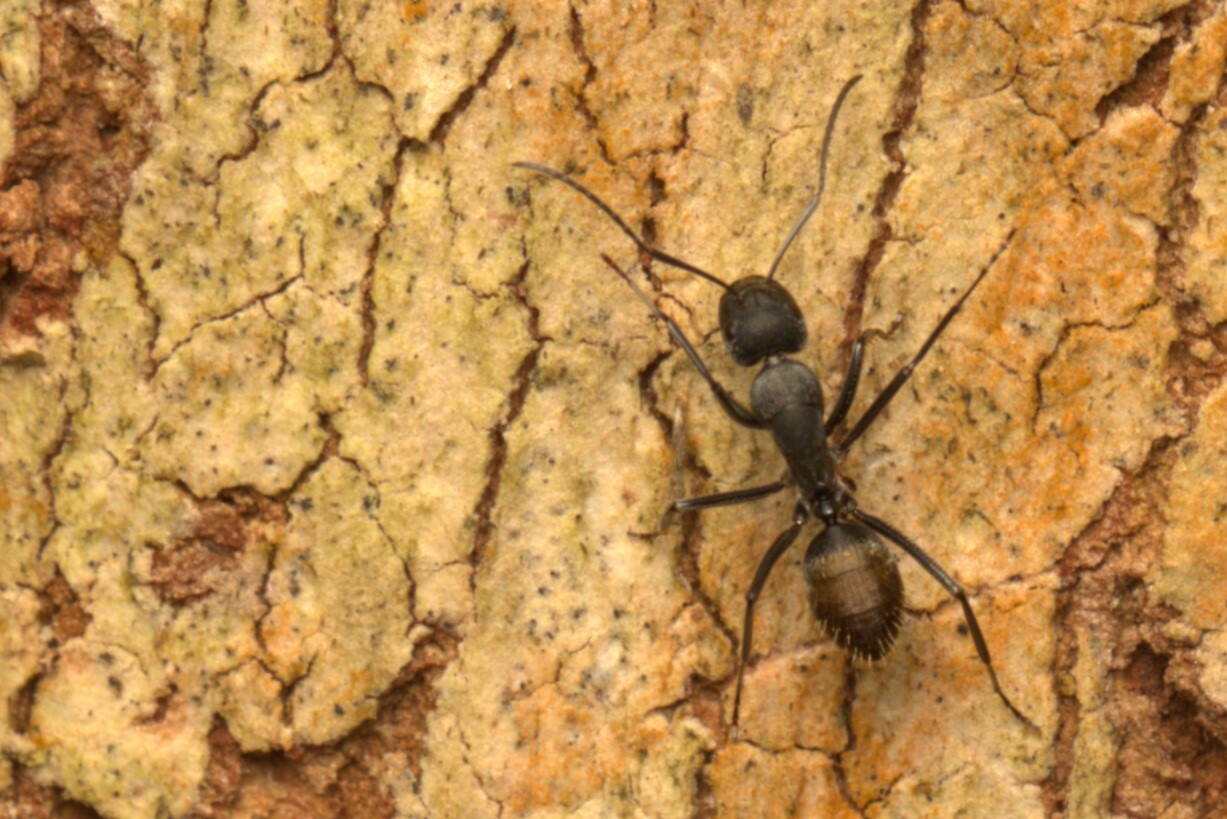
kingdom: Animalia
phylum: Arthropoda
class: Insecta
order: Hymenoptera
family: Formicidae
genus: Camponotus
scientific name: Camponotus aeneopilosus
